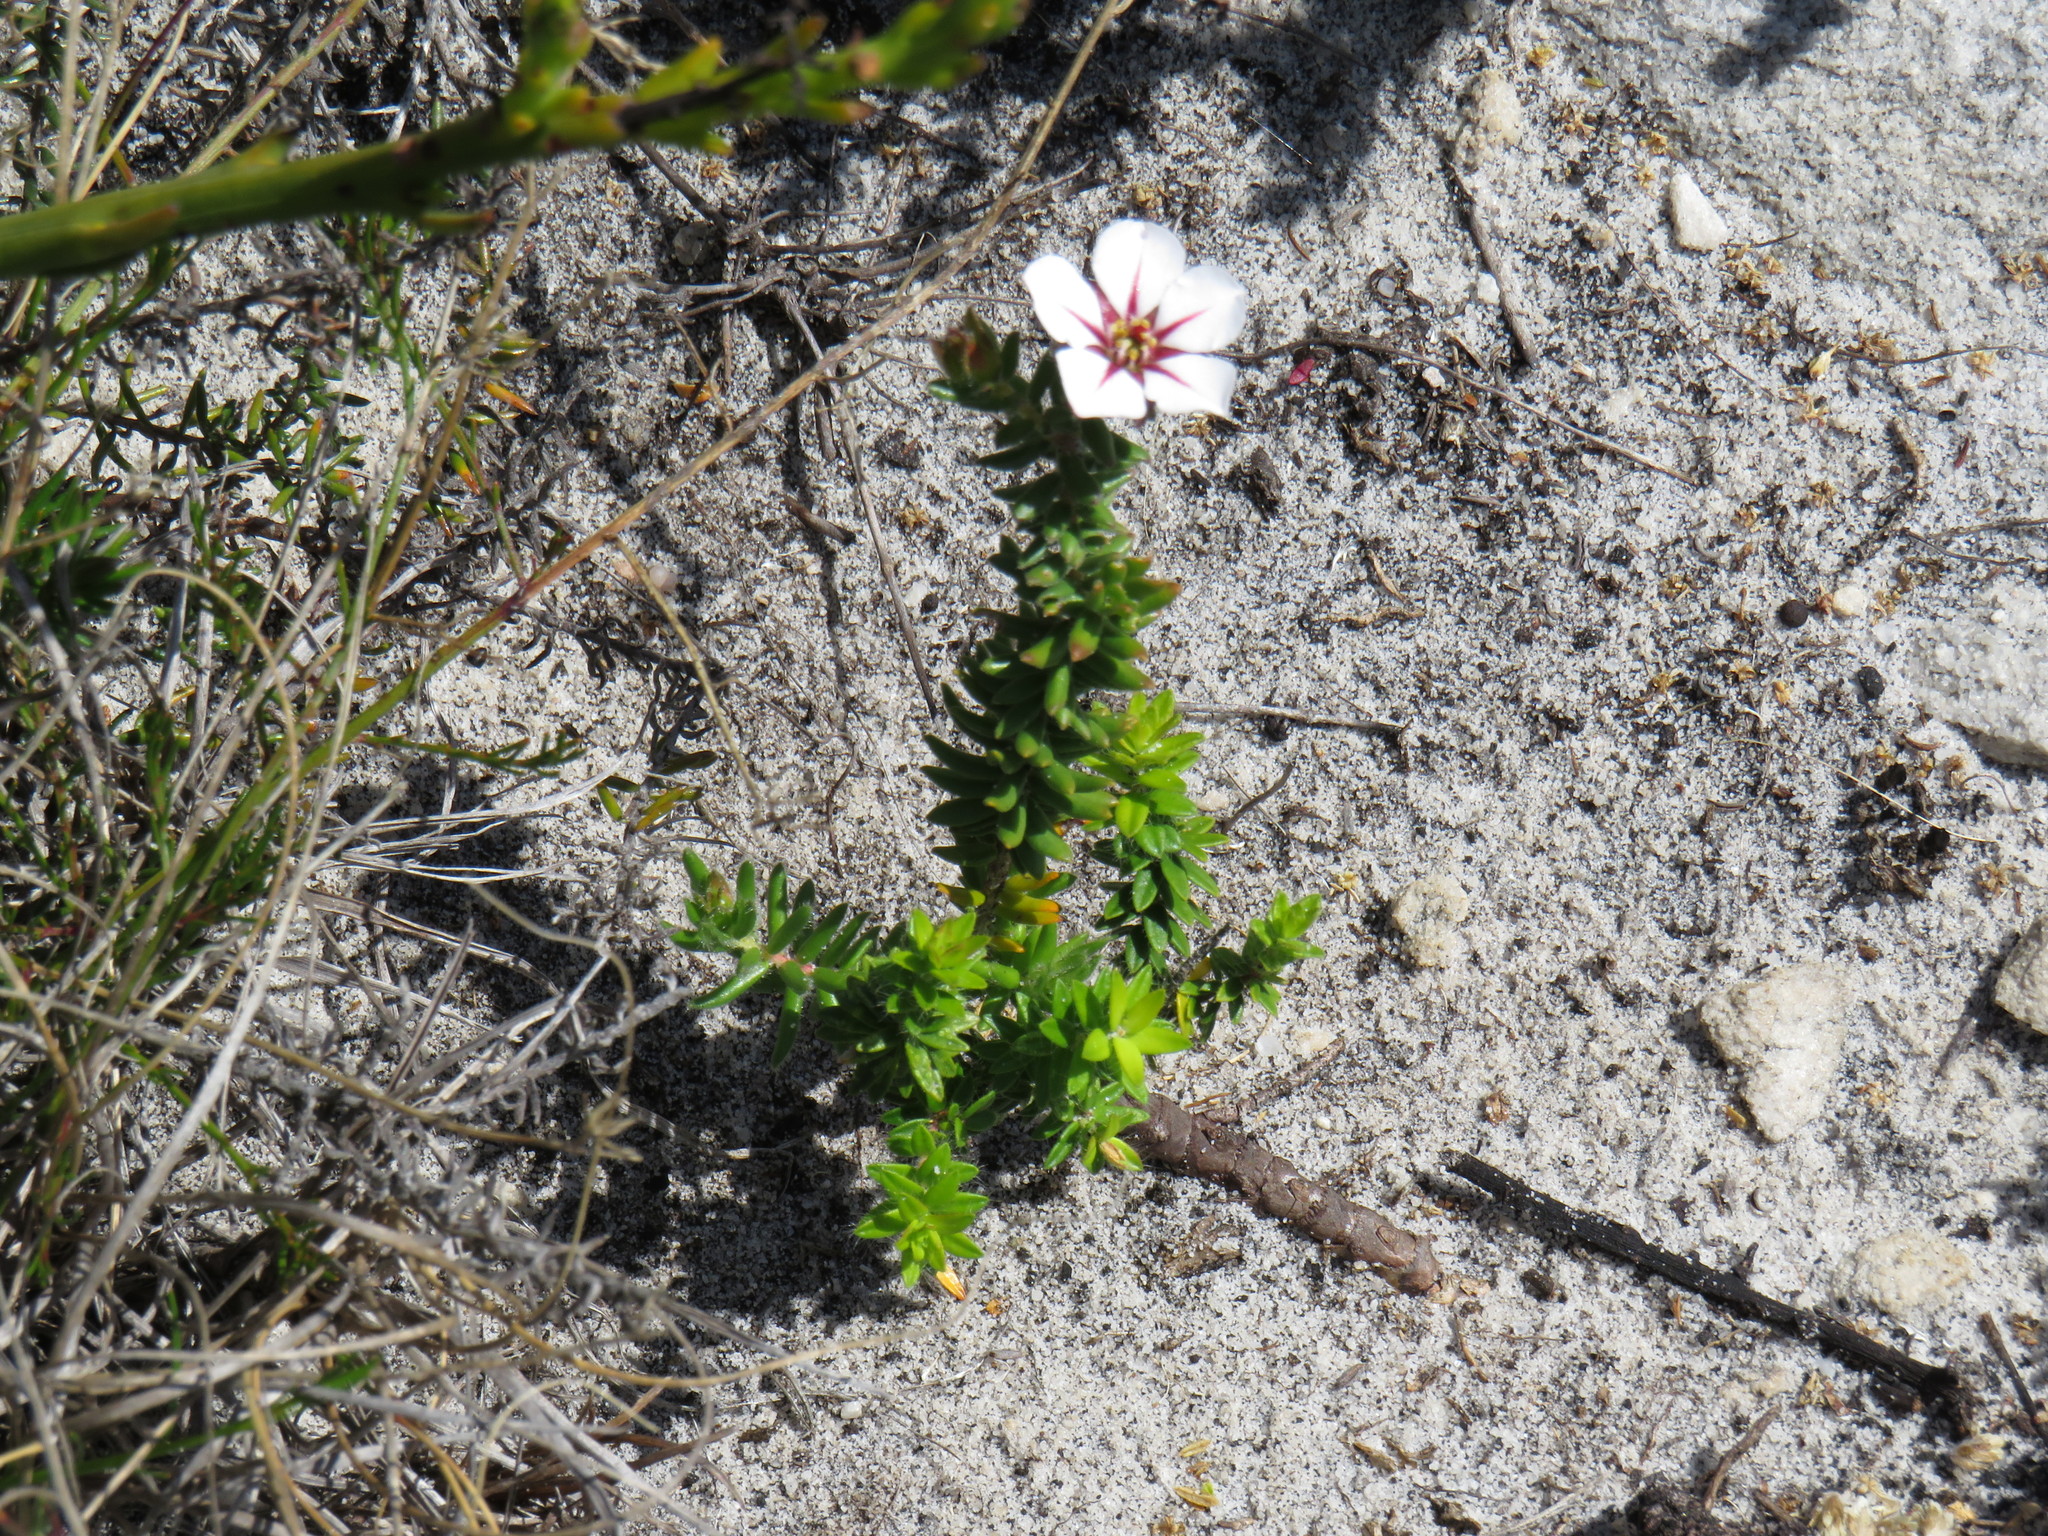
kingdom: Plantae
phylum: Tracheophyta
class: Magnoliopsida
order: Sapindales
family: Rutaceae
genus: Adenandra
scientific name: Adenandra uniflora
